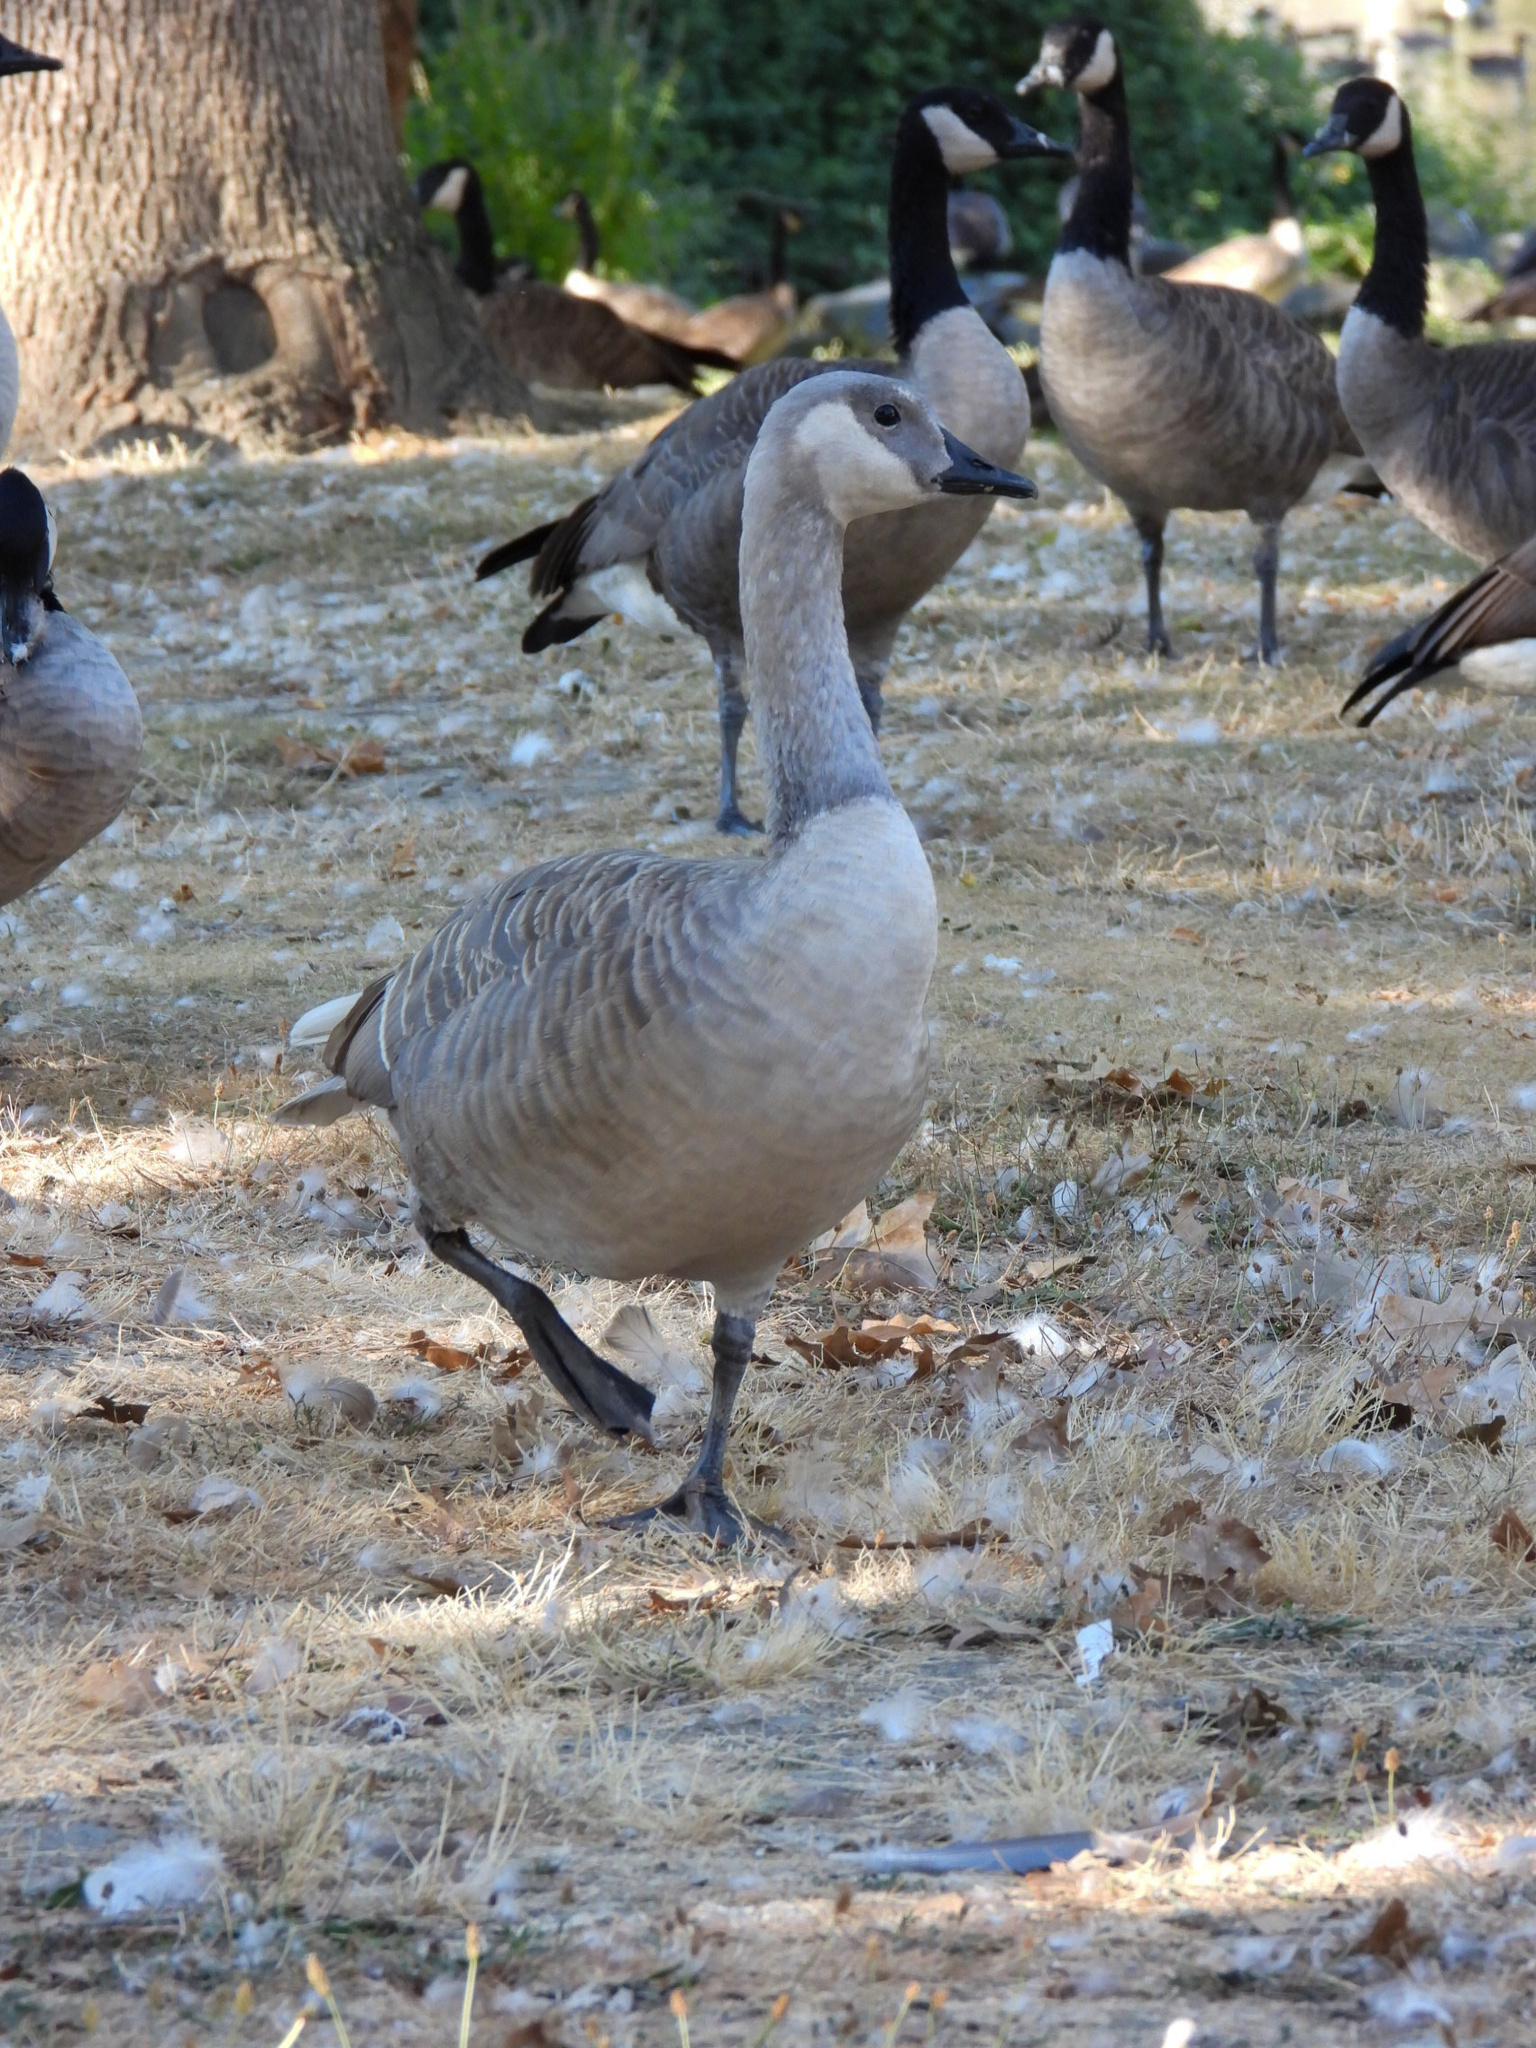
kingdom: Animalia
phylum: Chordata
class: Aves
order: Anseriformes
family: Anatidae
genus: Branta
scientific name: Branta canadensis
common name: Canada goose
